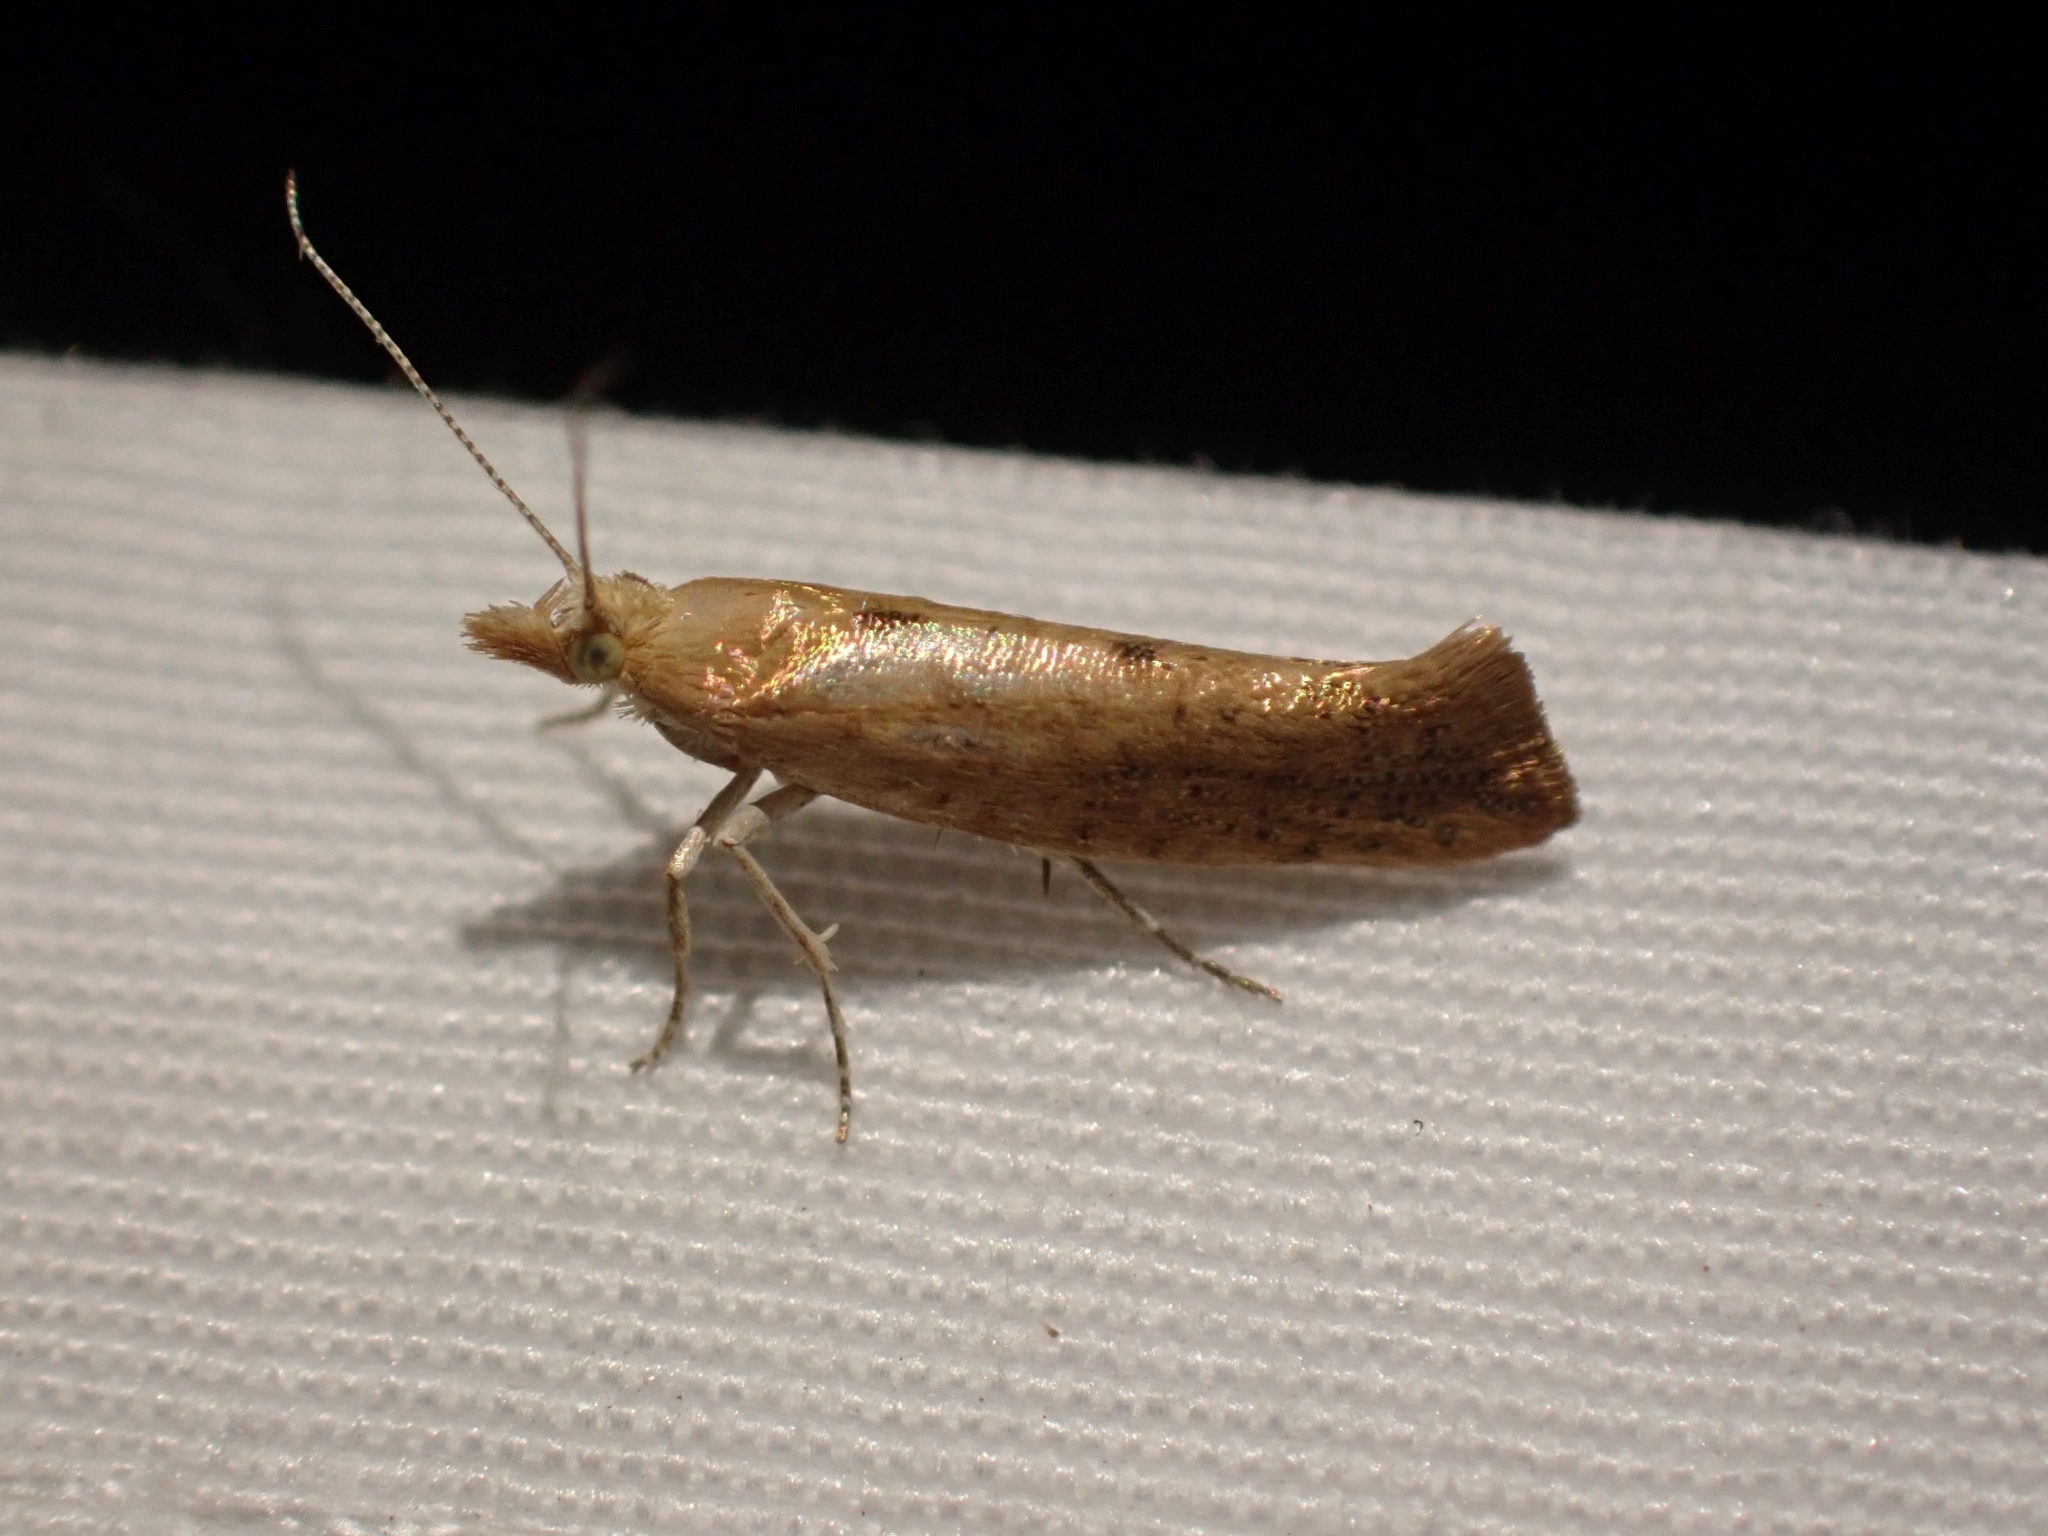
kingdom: Animalia
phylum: Arthropoda
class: Insecta
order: Lepidoptera
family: Ypsolophidae
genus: Ypsolopha
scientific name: Ypsolopha cervella
